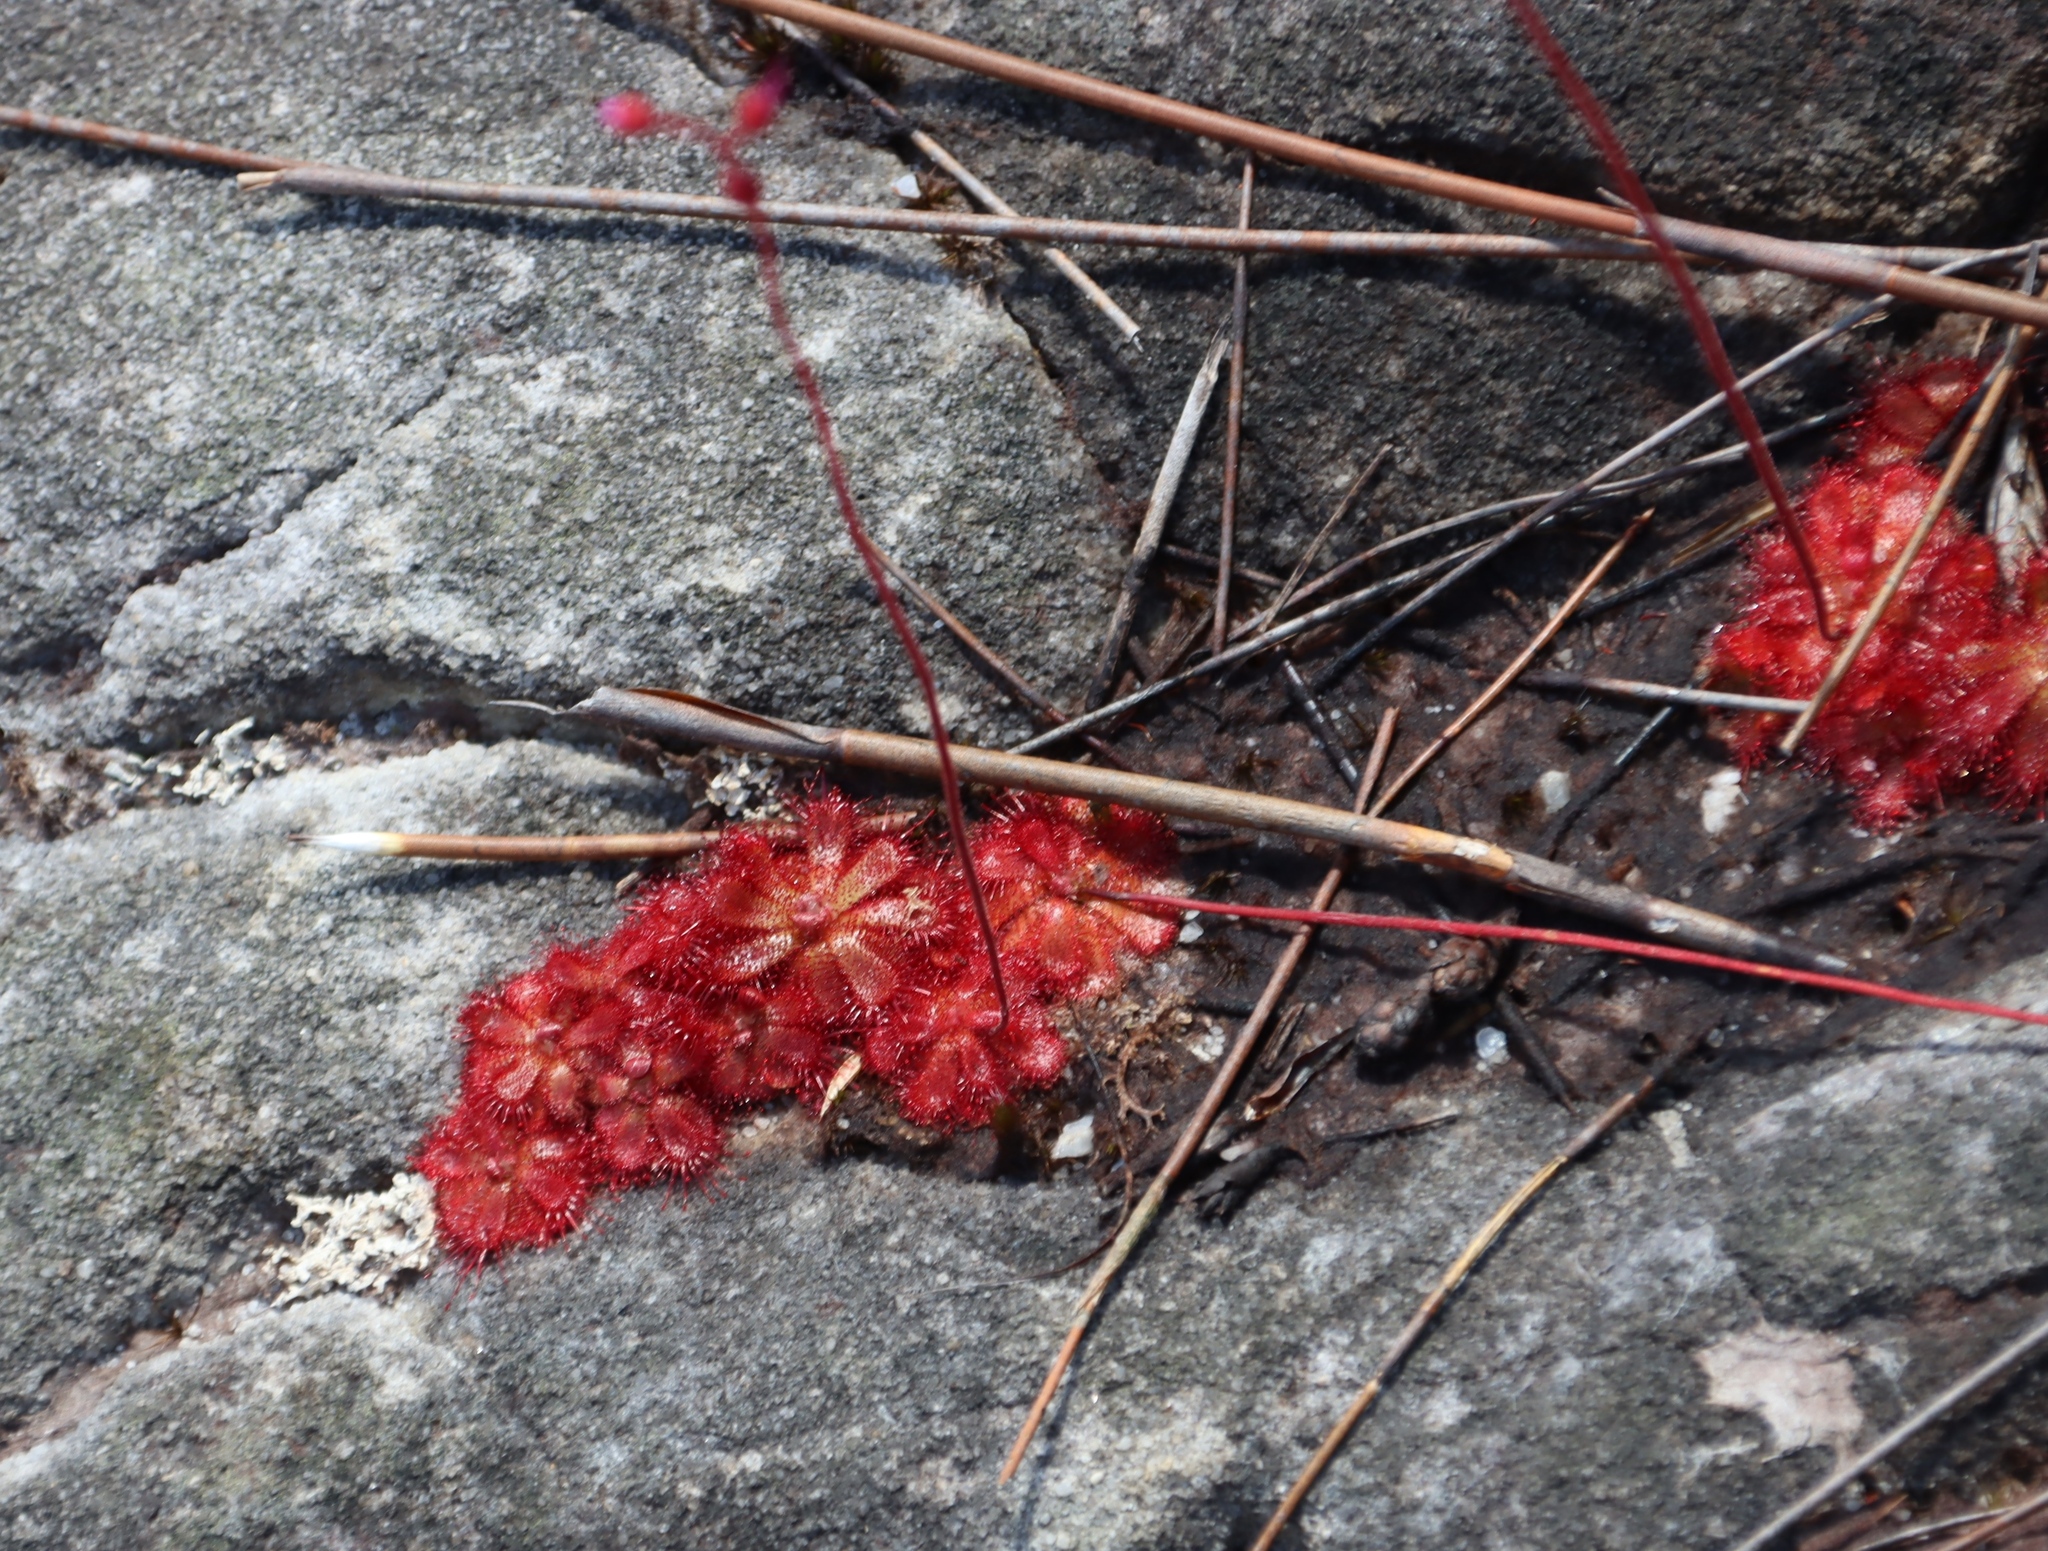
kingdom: Plantae
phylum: Tracheophyta
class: Magnoliopsida
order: Caryophyllales
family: Droseraceae
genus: Drosera
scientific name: Drosera cuneifolia
